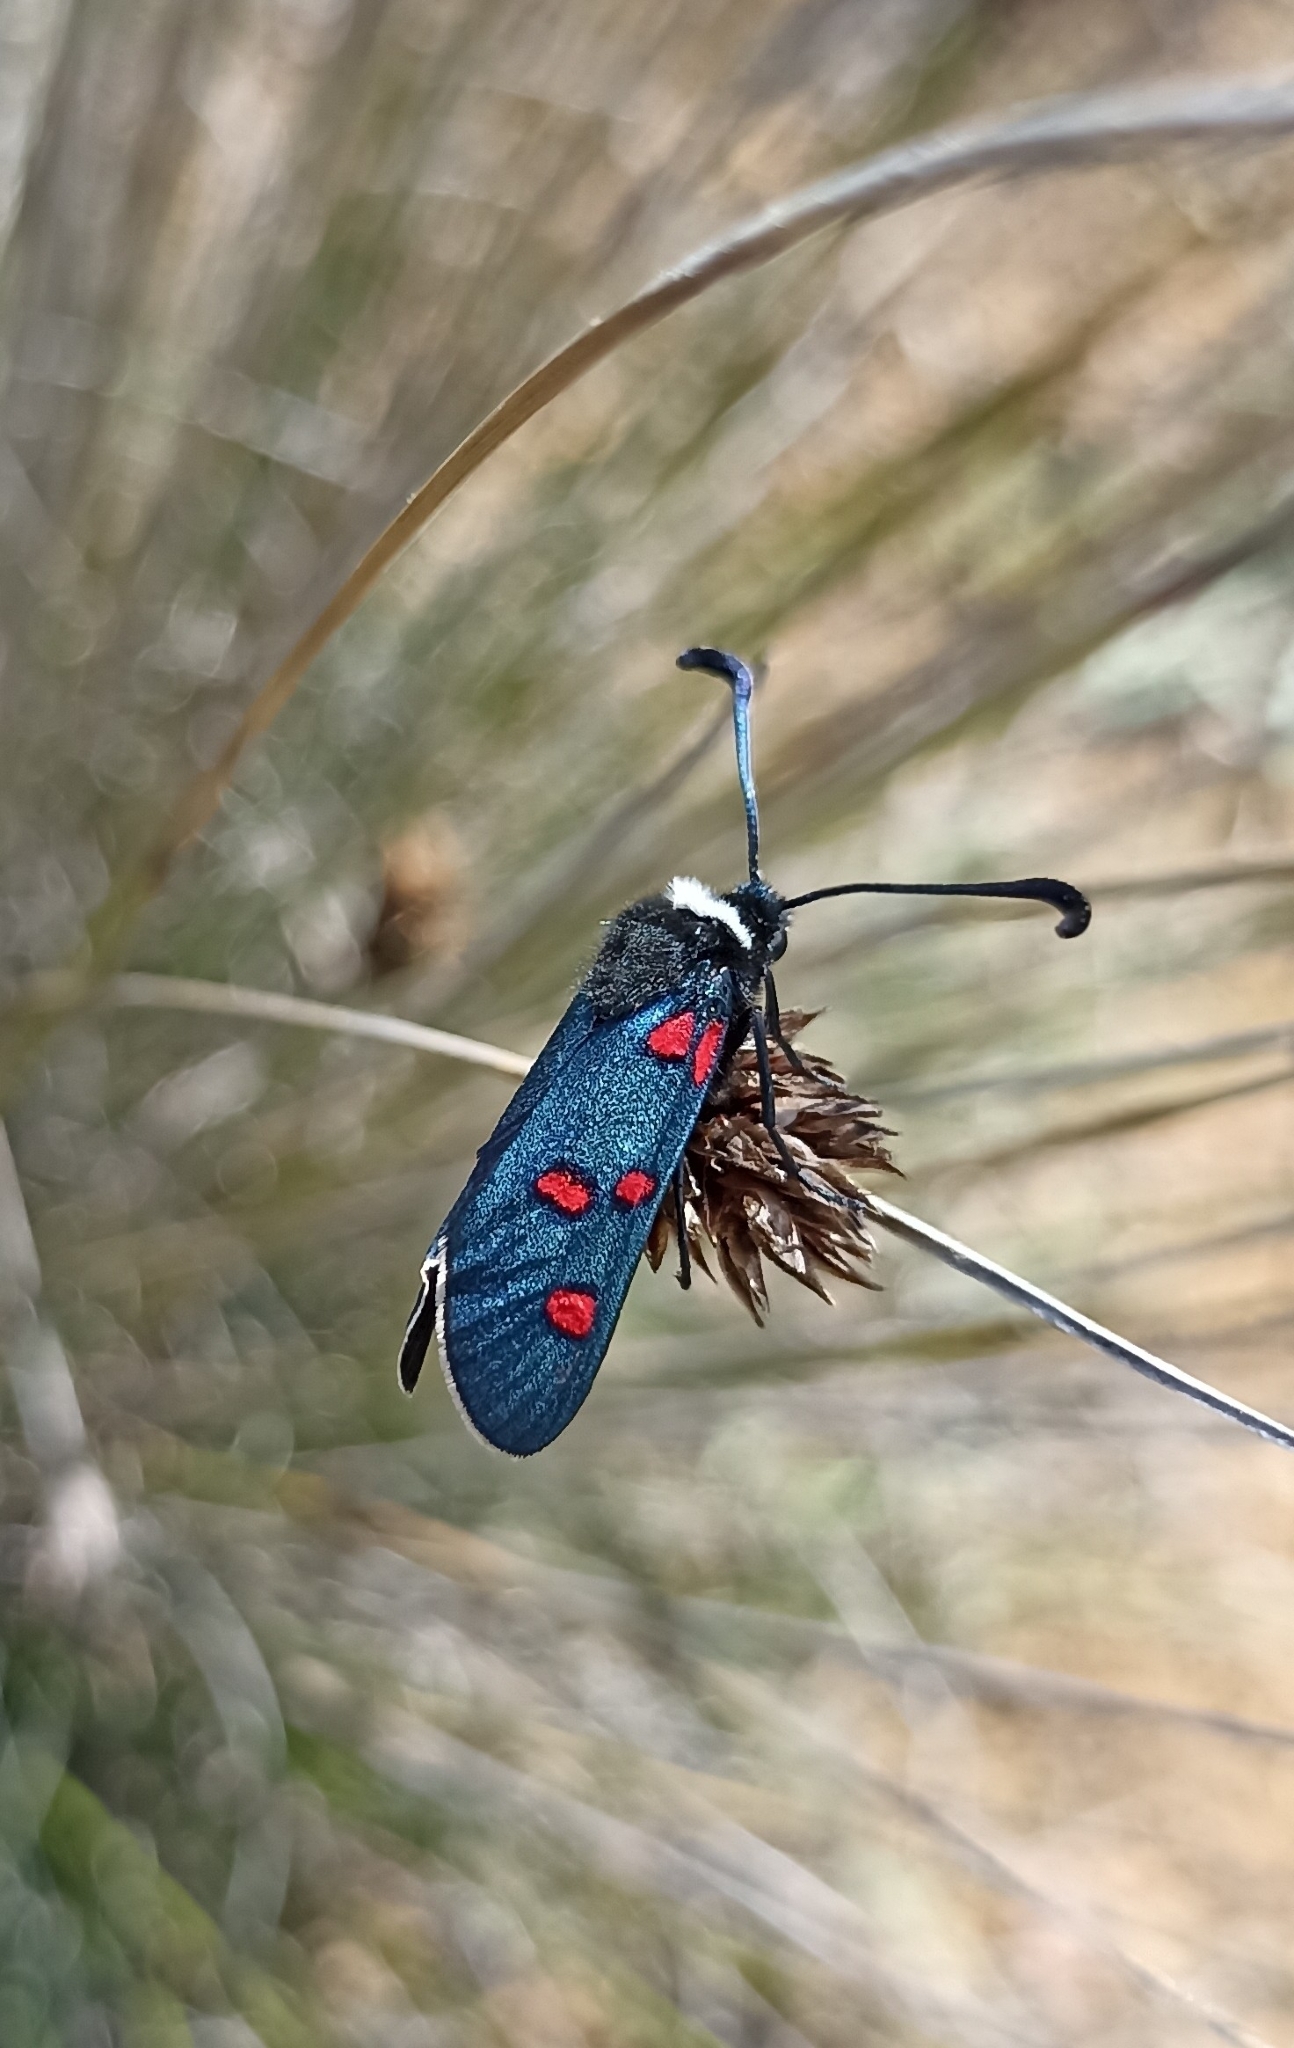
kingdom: Animalia
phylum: Arthropoda
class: Insecta
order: Lepidoptera
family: Zygaenidae
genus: Zygaena
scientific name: Zygaena lavandulae
